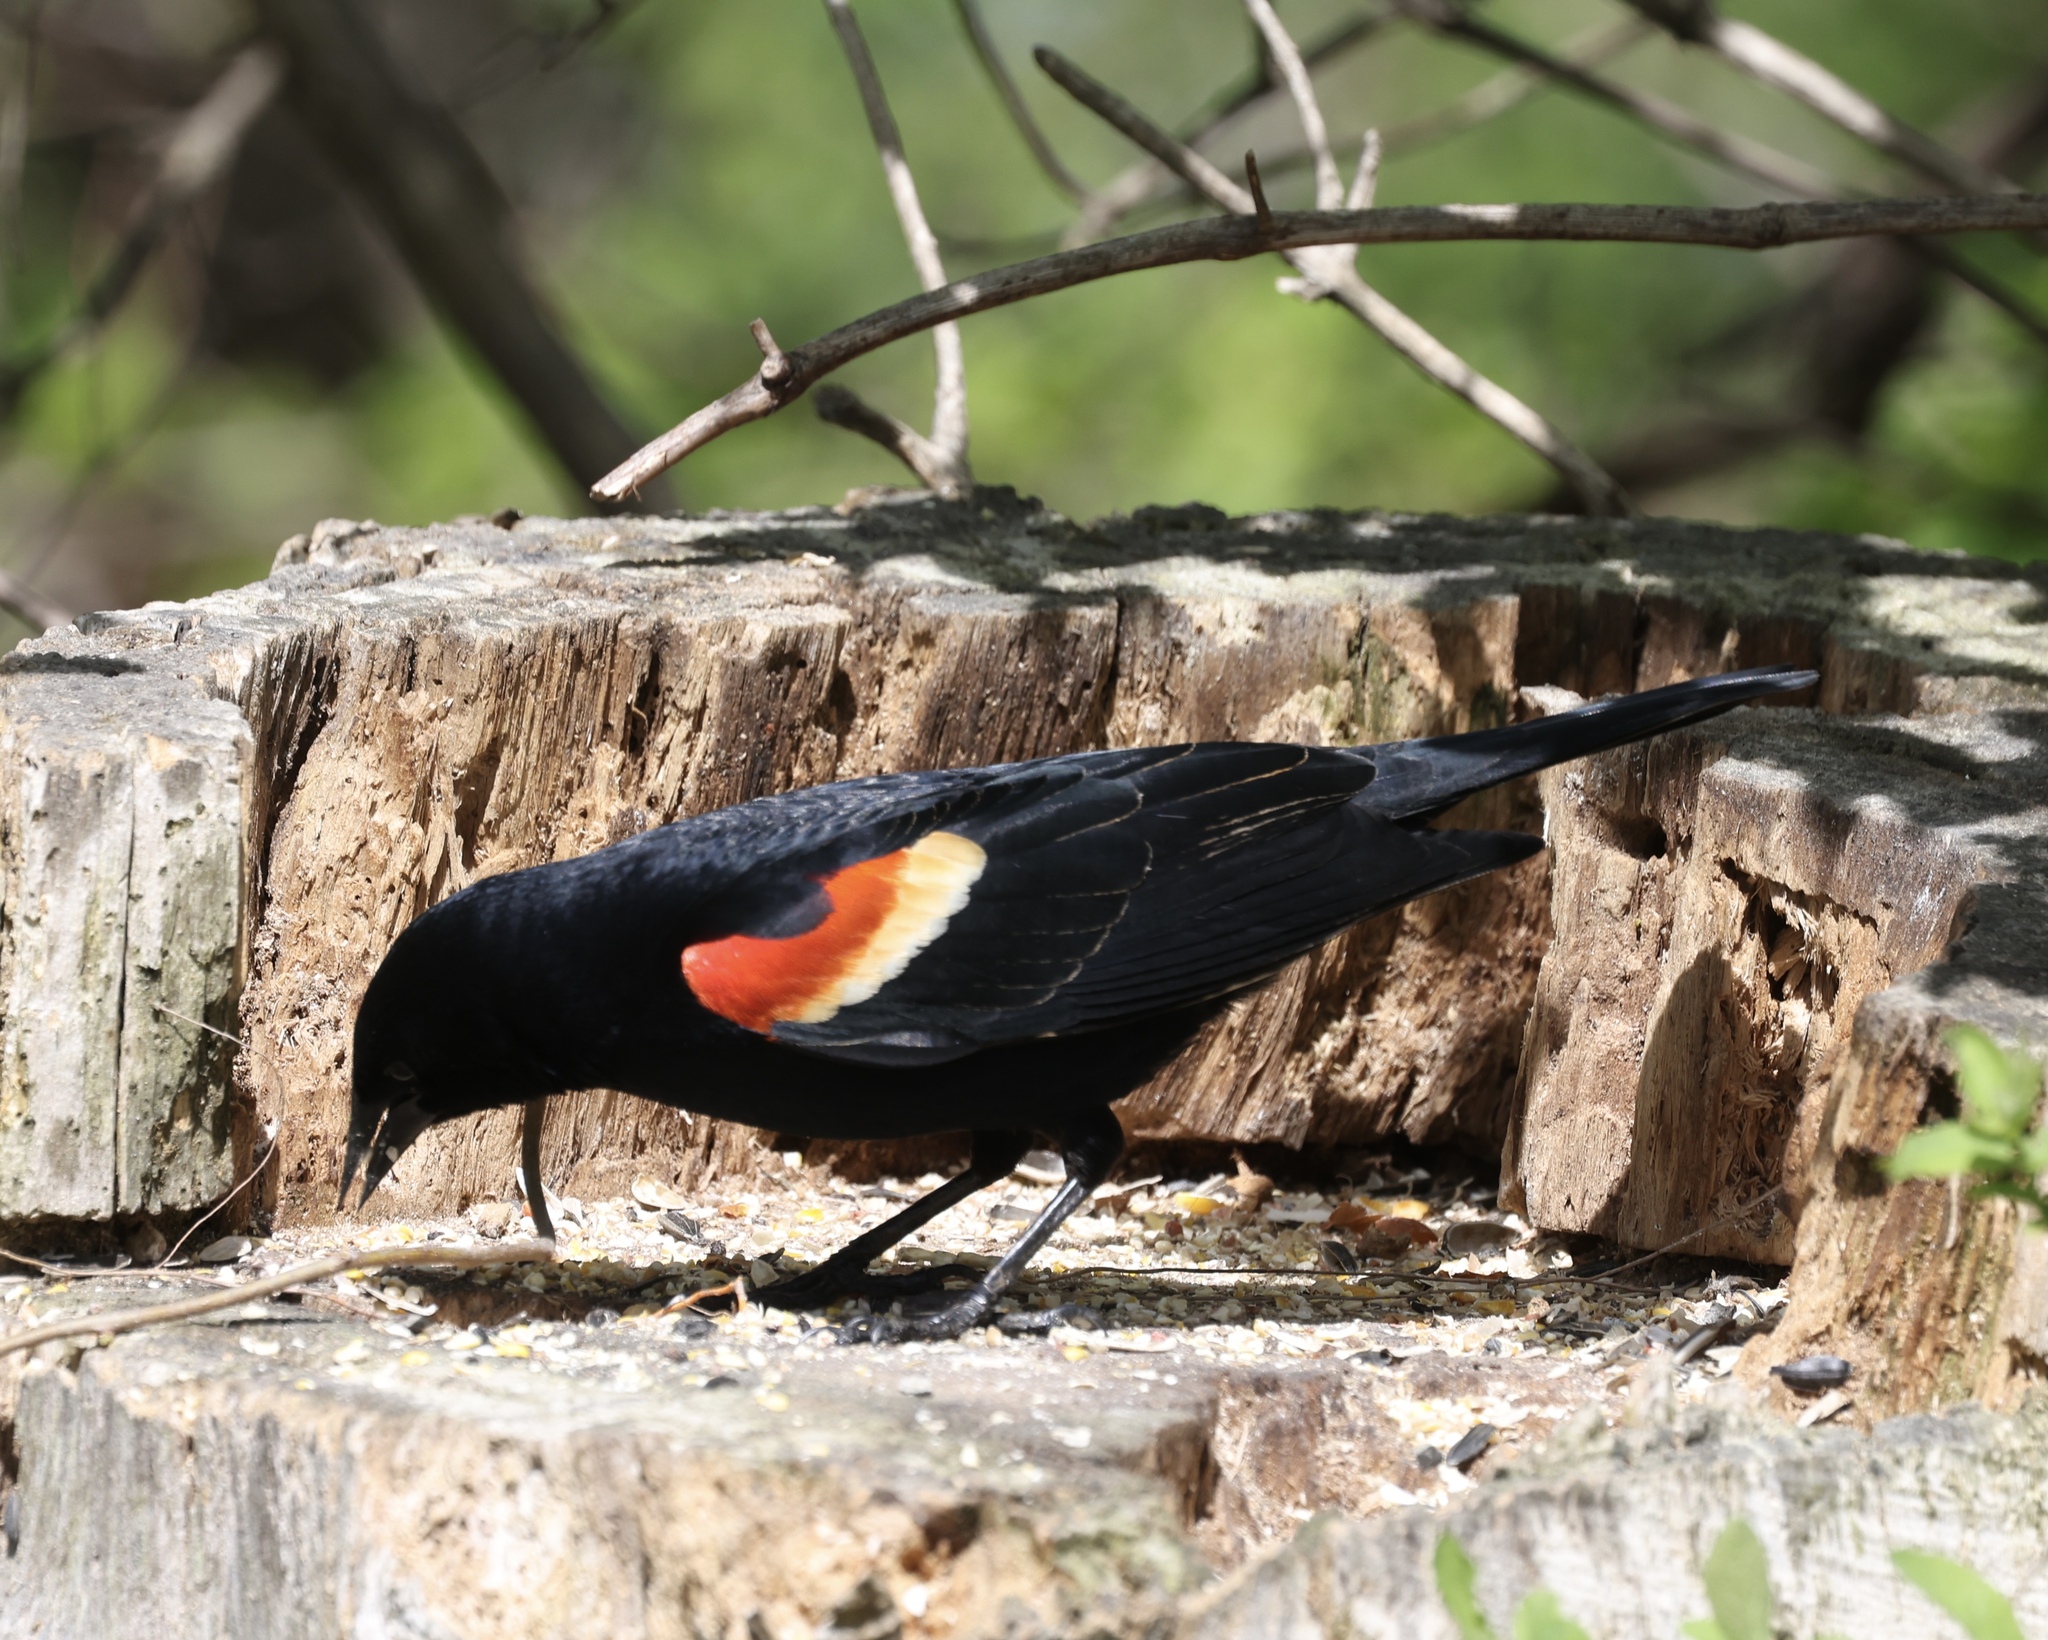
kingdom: Animalia
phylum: Chordata
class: Aves
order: Passeriformes
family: Icteridae
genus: Agelaius
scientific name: Agelaius phoeniceus
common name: Red-winged blackbird
